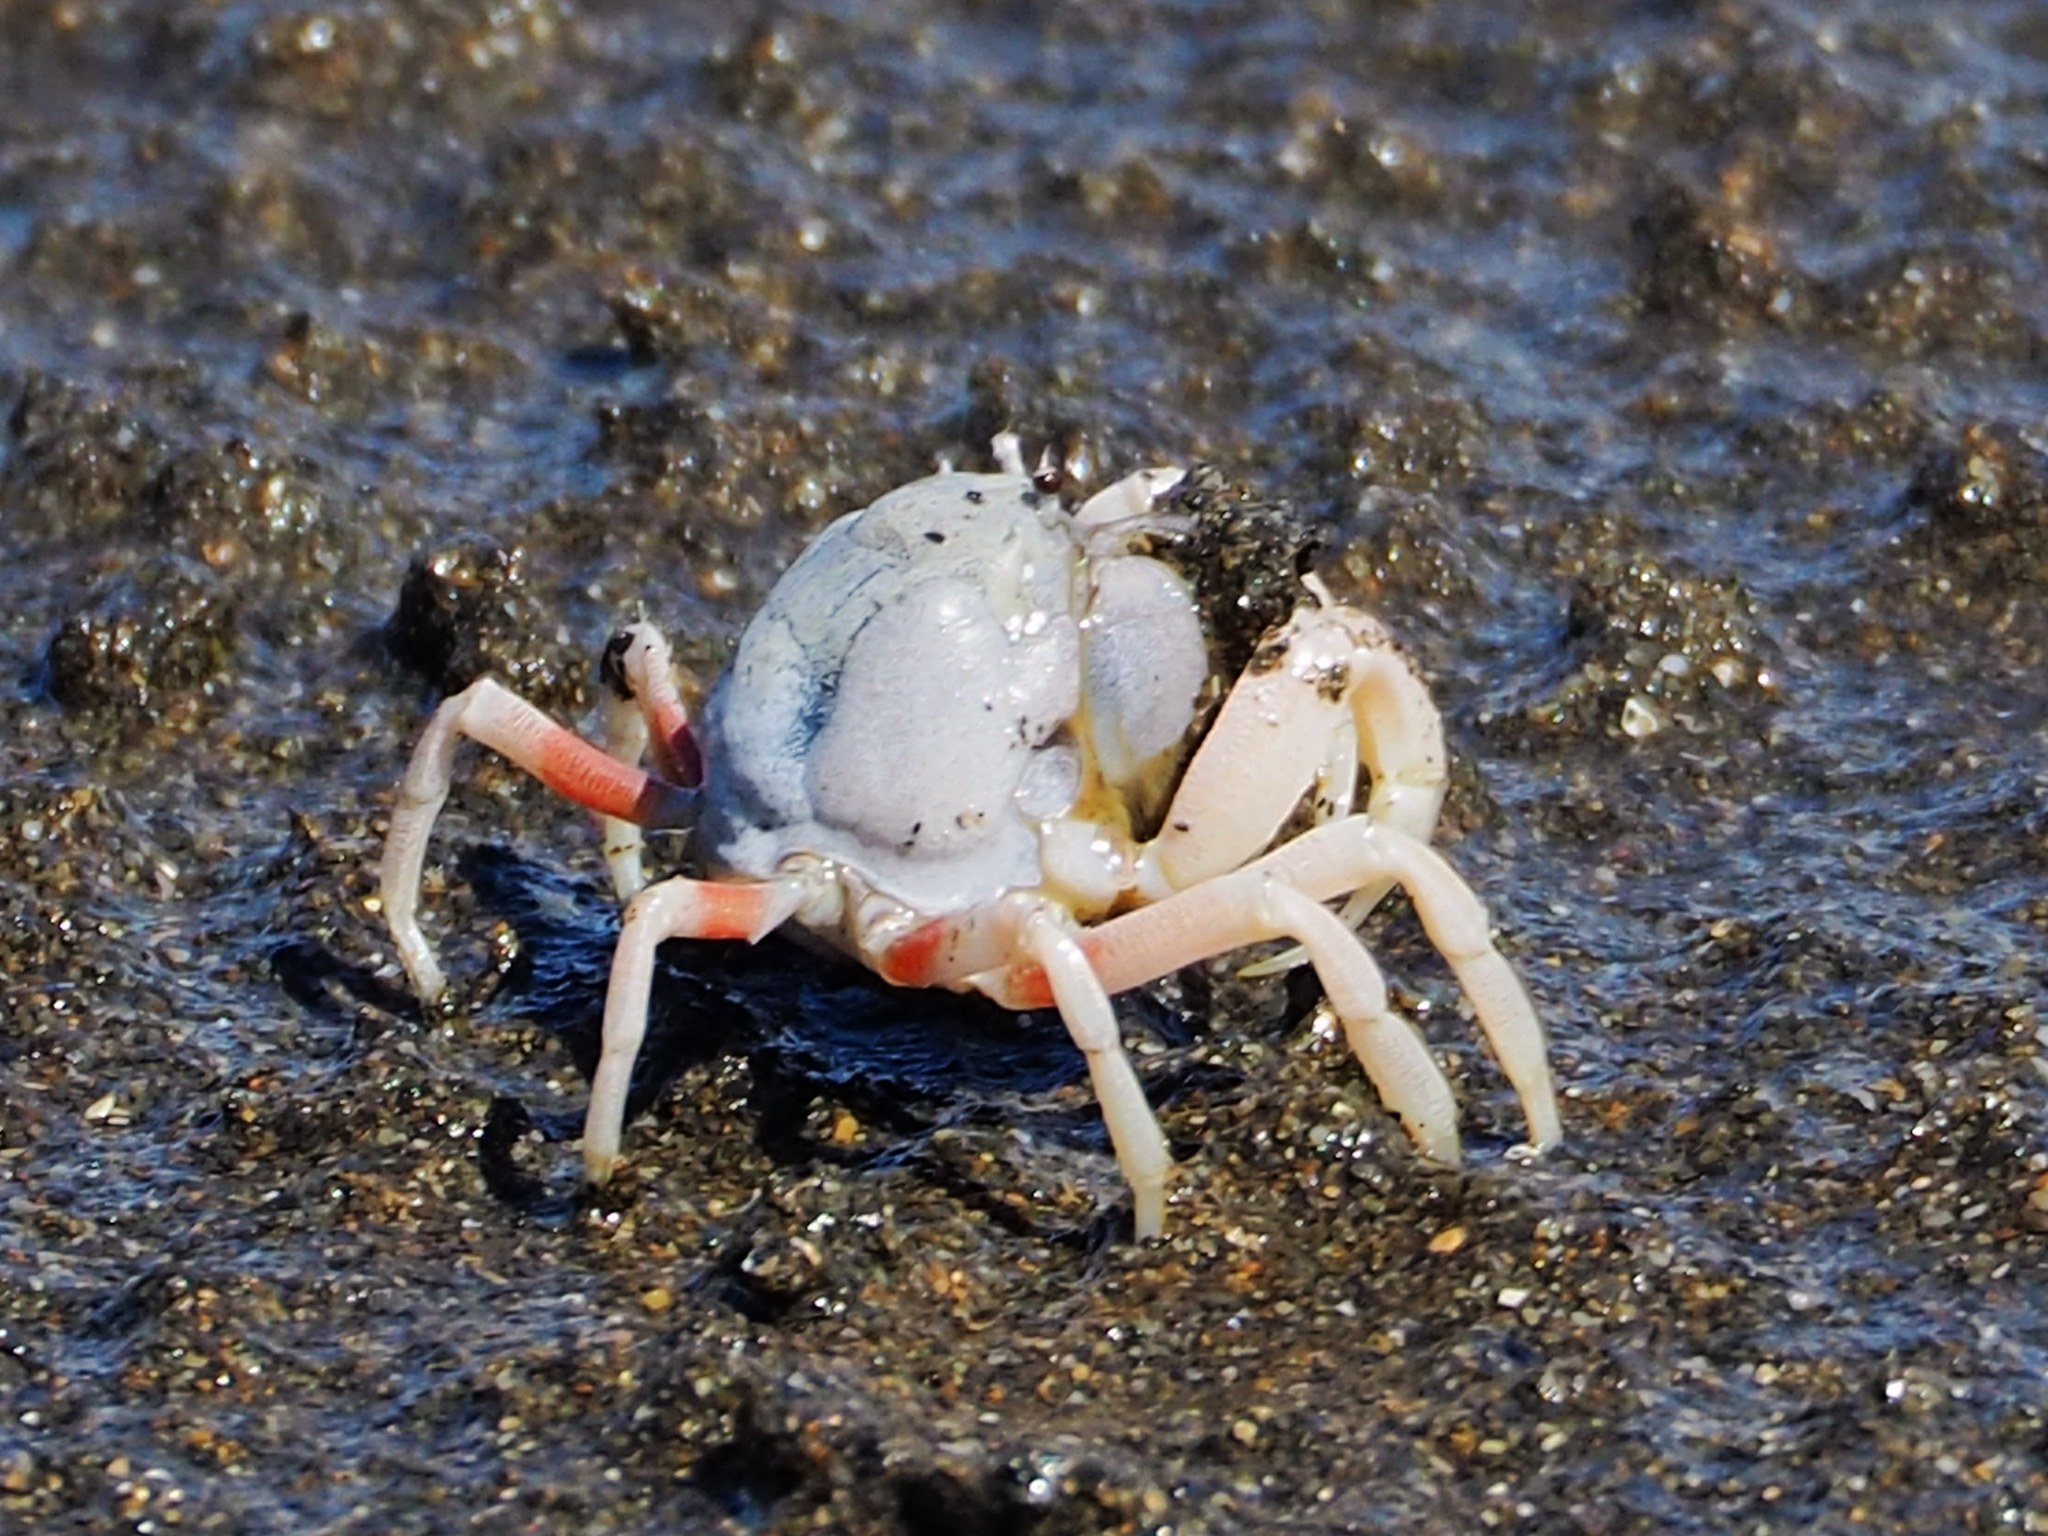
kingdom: Animalia
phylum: Arthropoda
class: Malacostraca
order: Decapoda
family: Mictyridae
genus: Mictyris
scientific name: Mictyris brevidactylus
